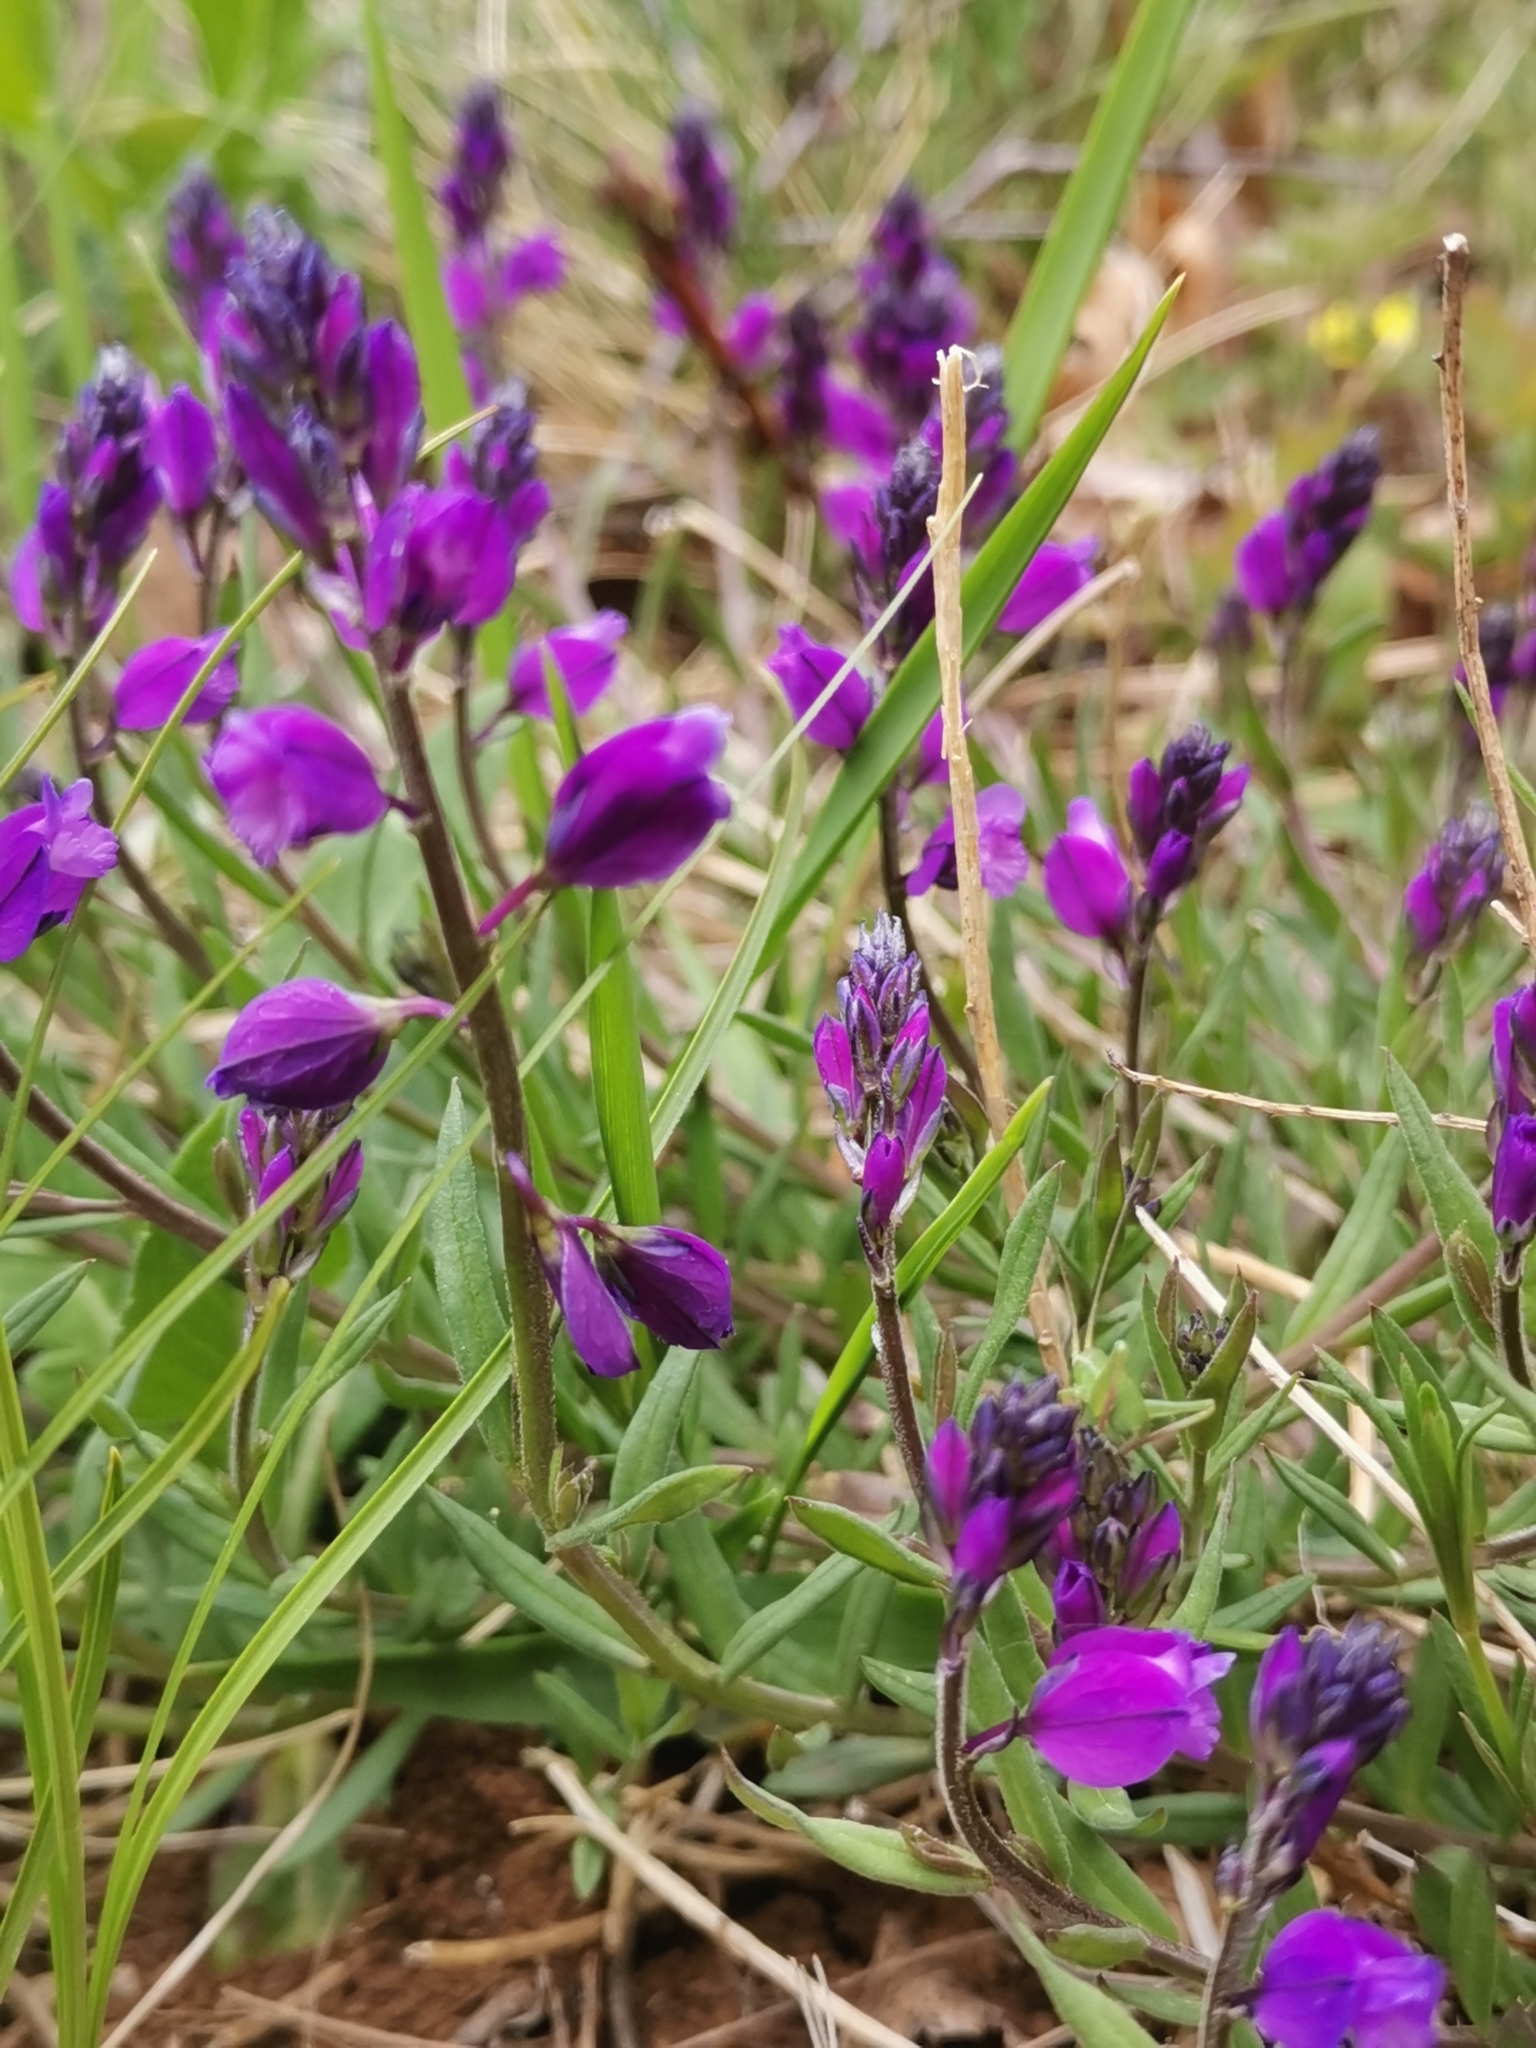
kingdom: Plantae
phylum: Tracheophyta
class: Magnoliopsida
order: Fabales
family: Polygalaceae
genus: Polygala
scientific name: Polygala nicaeensis
